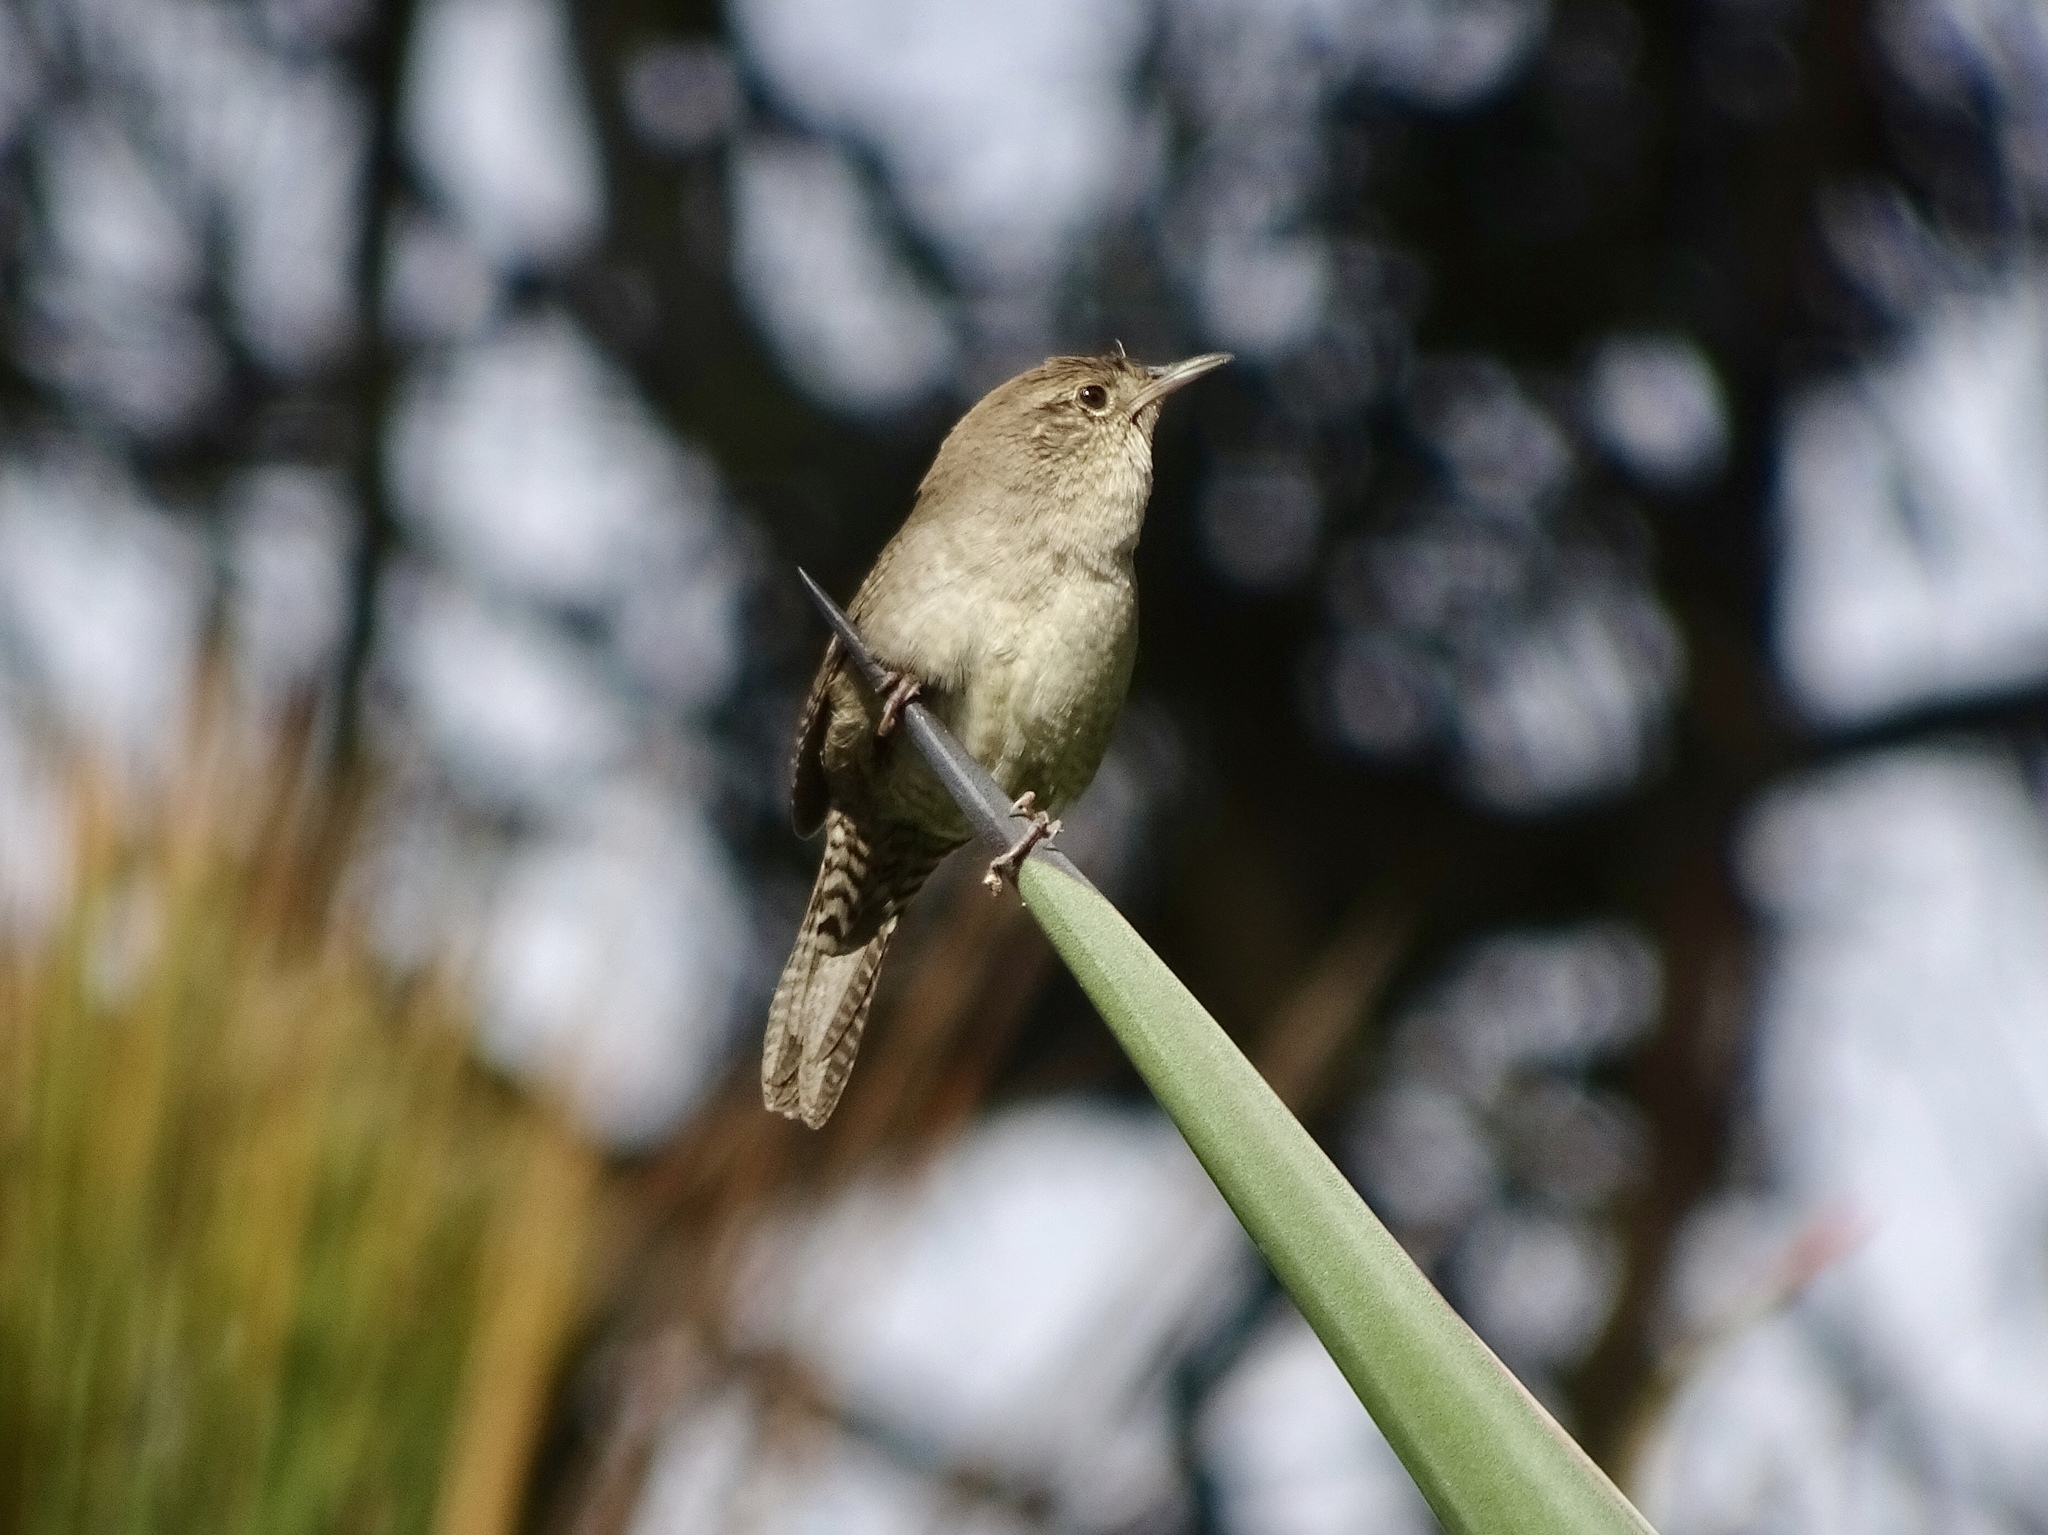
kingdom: Animalia
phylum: Chordata
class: Aves
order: Passeriformes
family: Troglodytidae
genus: Troglodytes
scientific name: Troglodytes aedon
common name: House wren
